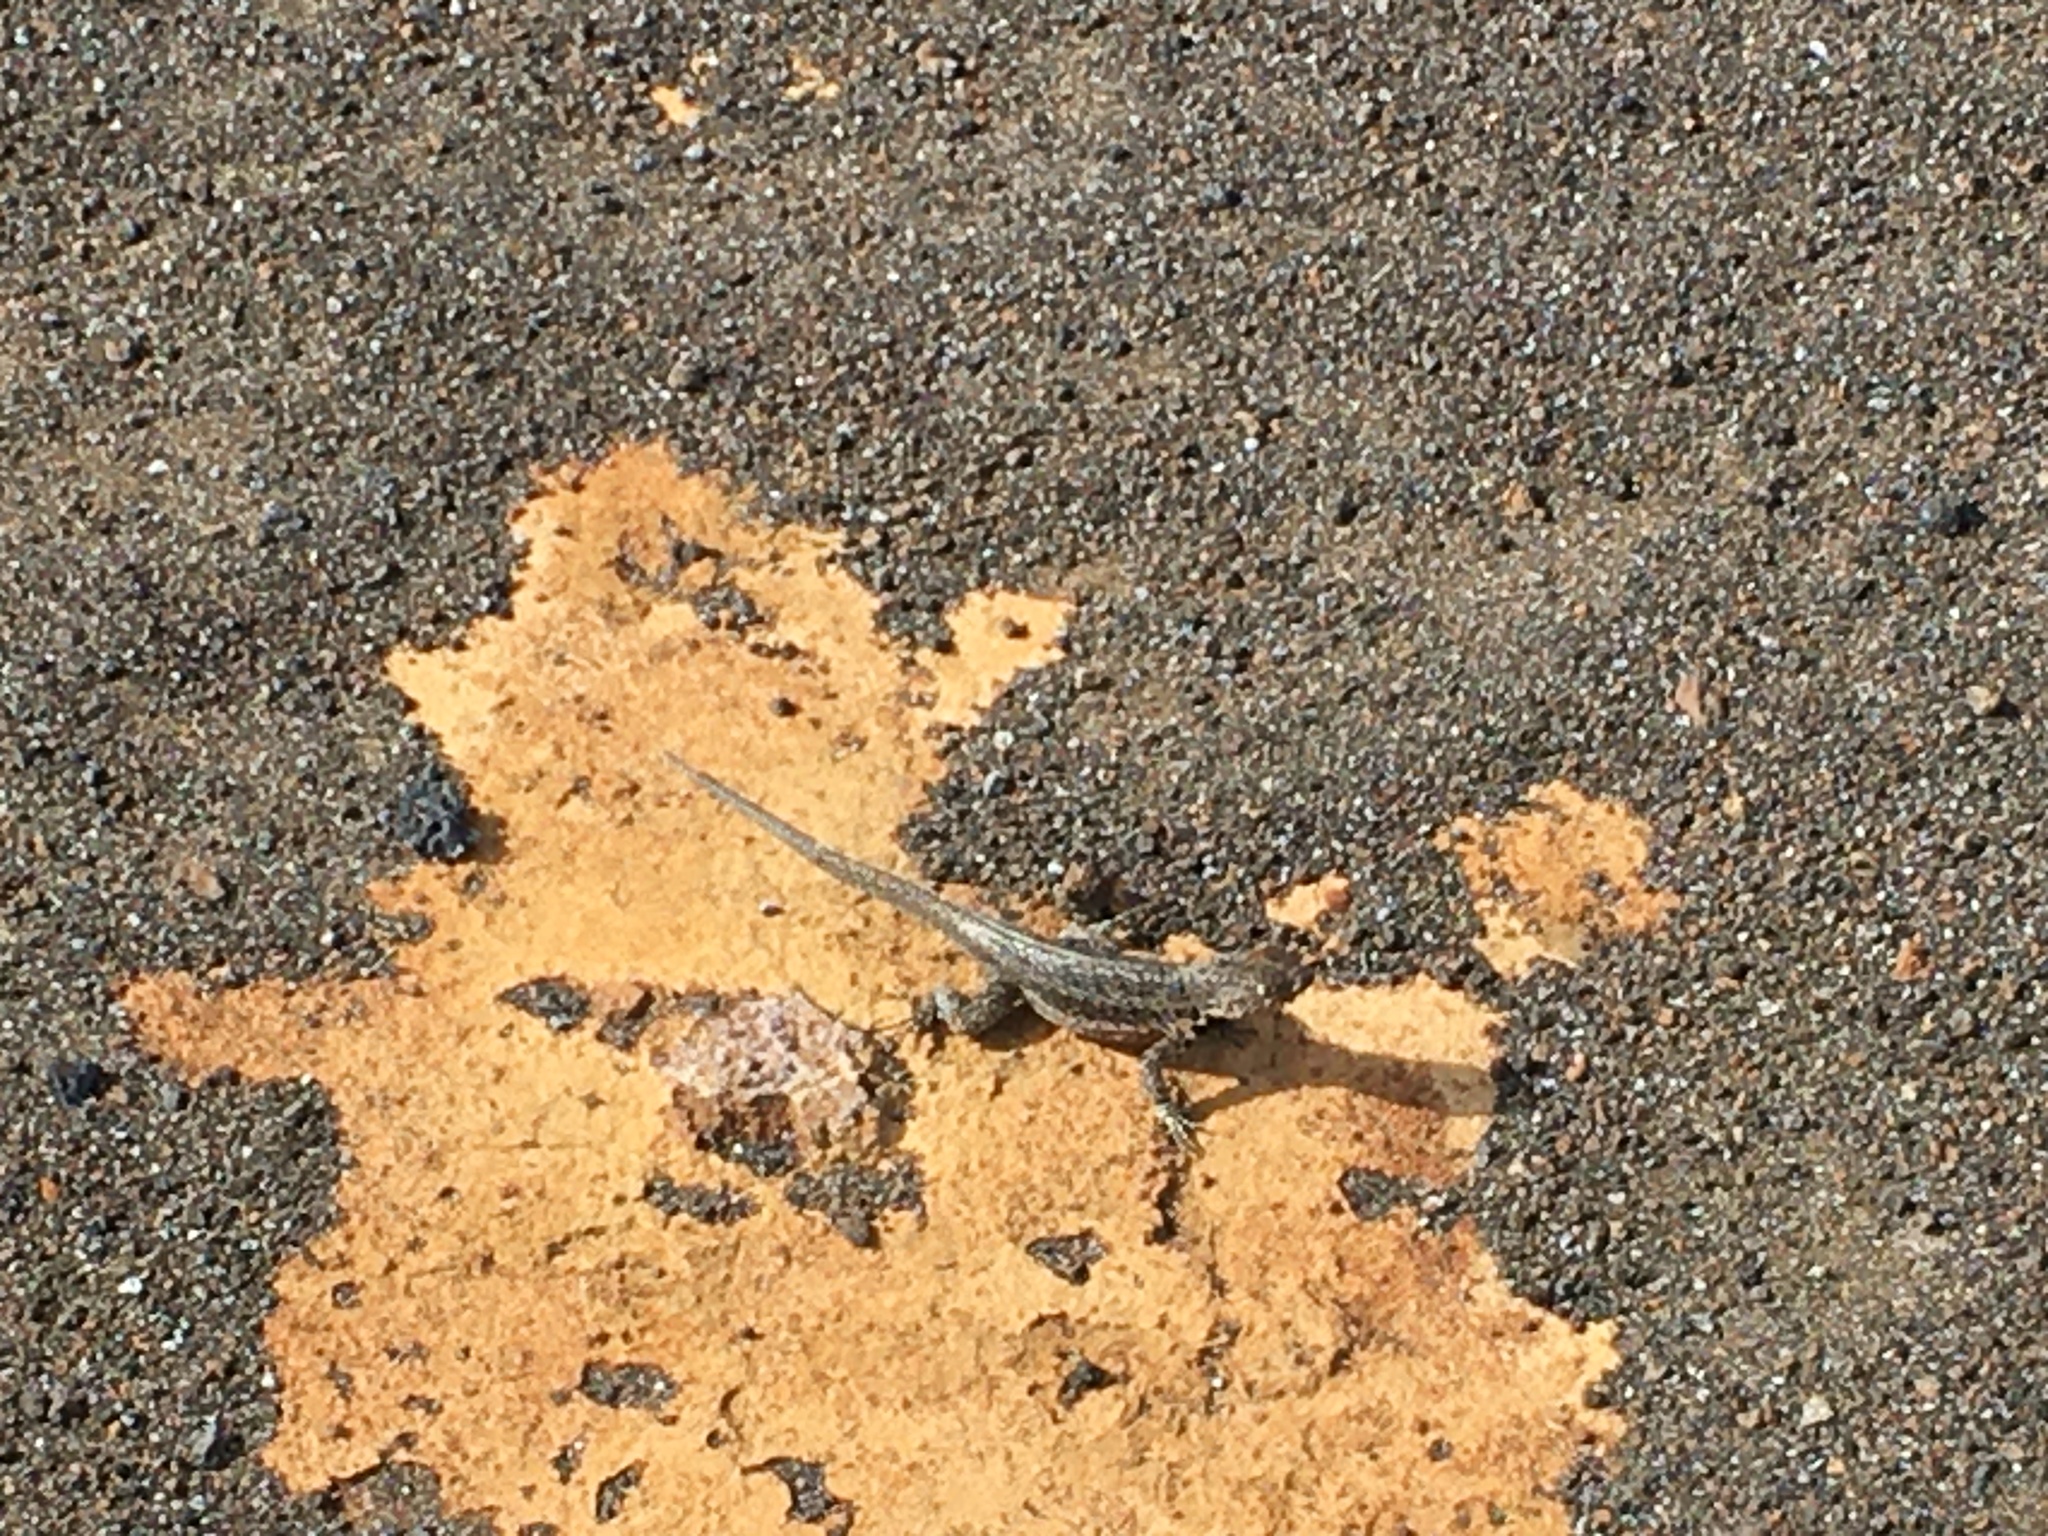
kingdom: Animalia
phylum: Chordata
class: Squamata
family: Tropiduridae
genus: Microlophus
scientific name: Microlophus jacobii
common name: Santiago lava lizard
